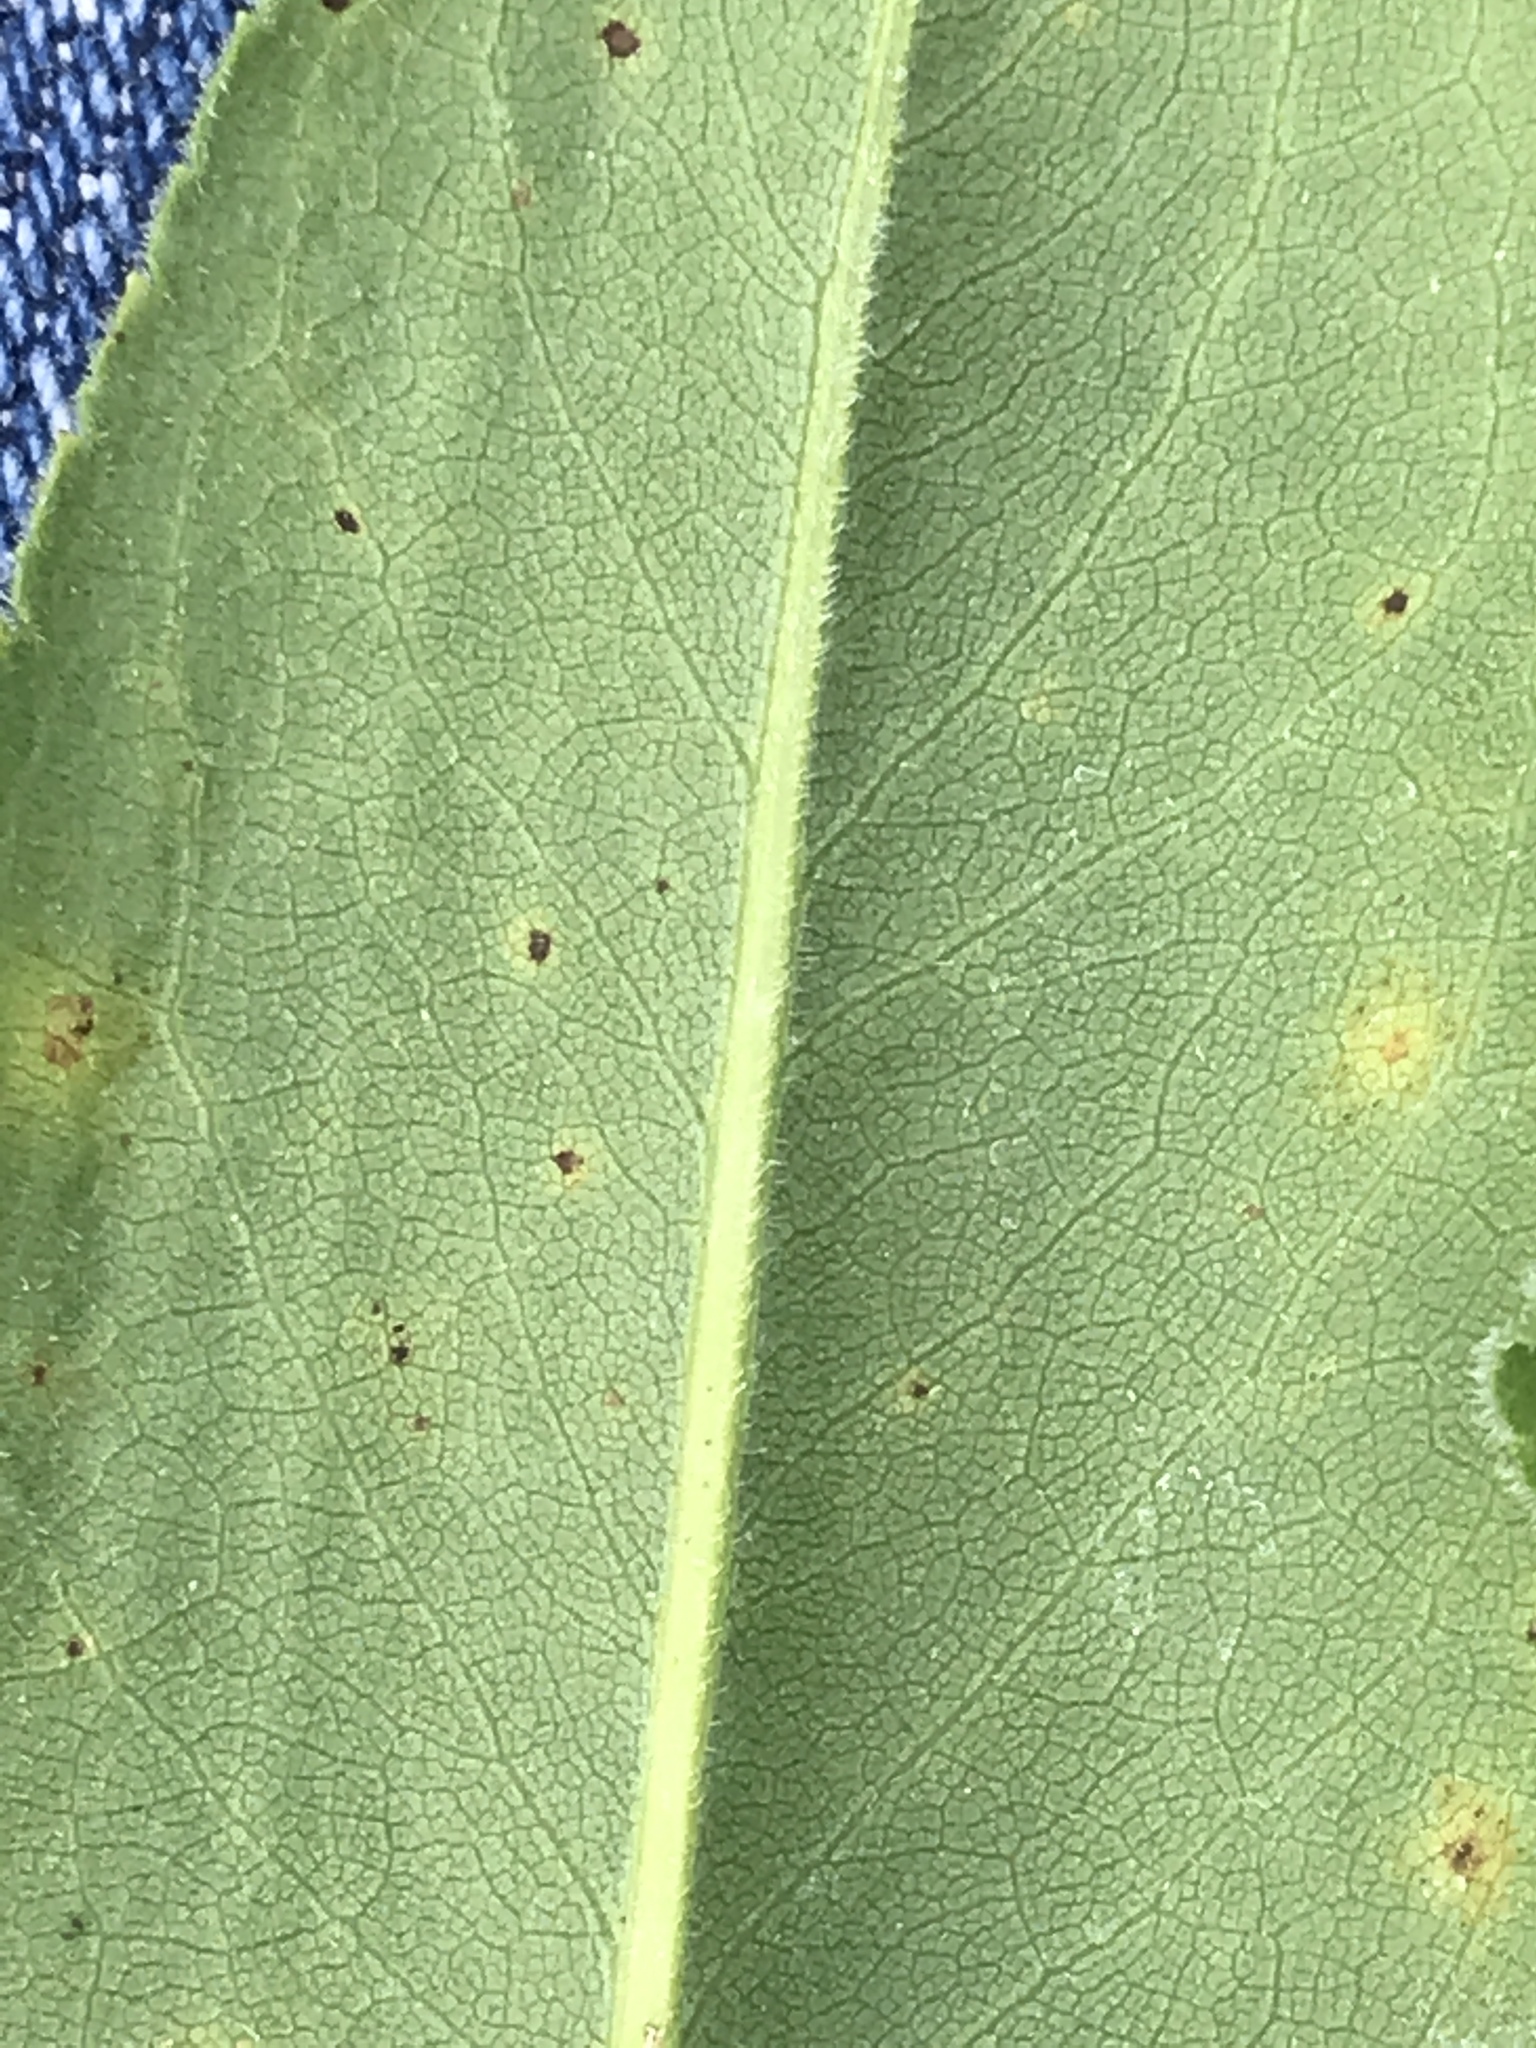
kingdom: Plantae
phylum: Tracheophyta
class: Magnoliopsida
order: Asterales
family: Asteraceae
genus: Solidago
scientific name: Solidago rigida
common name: Rigid goldenrod
